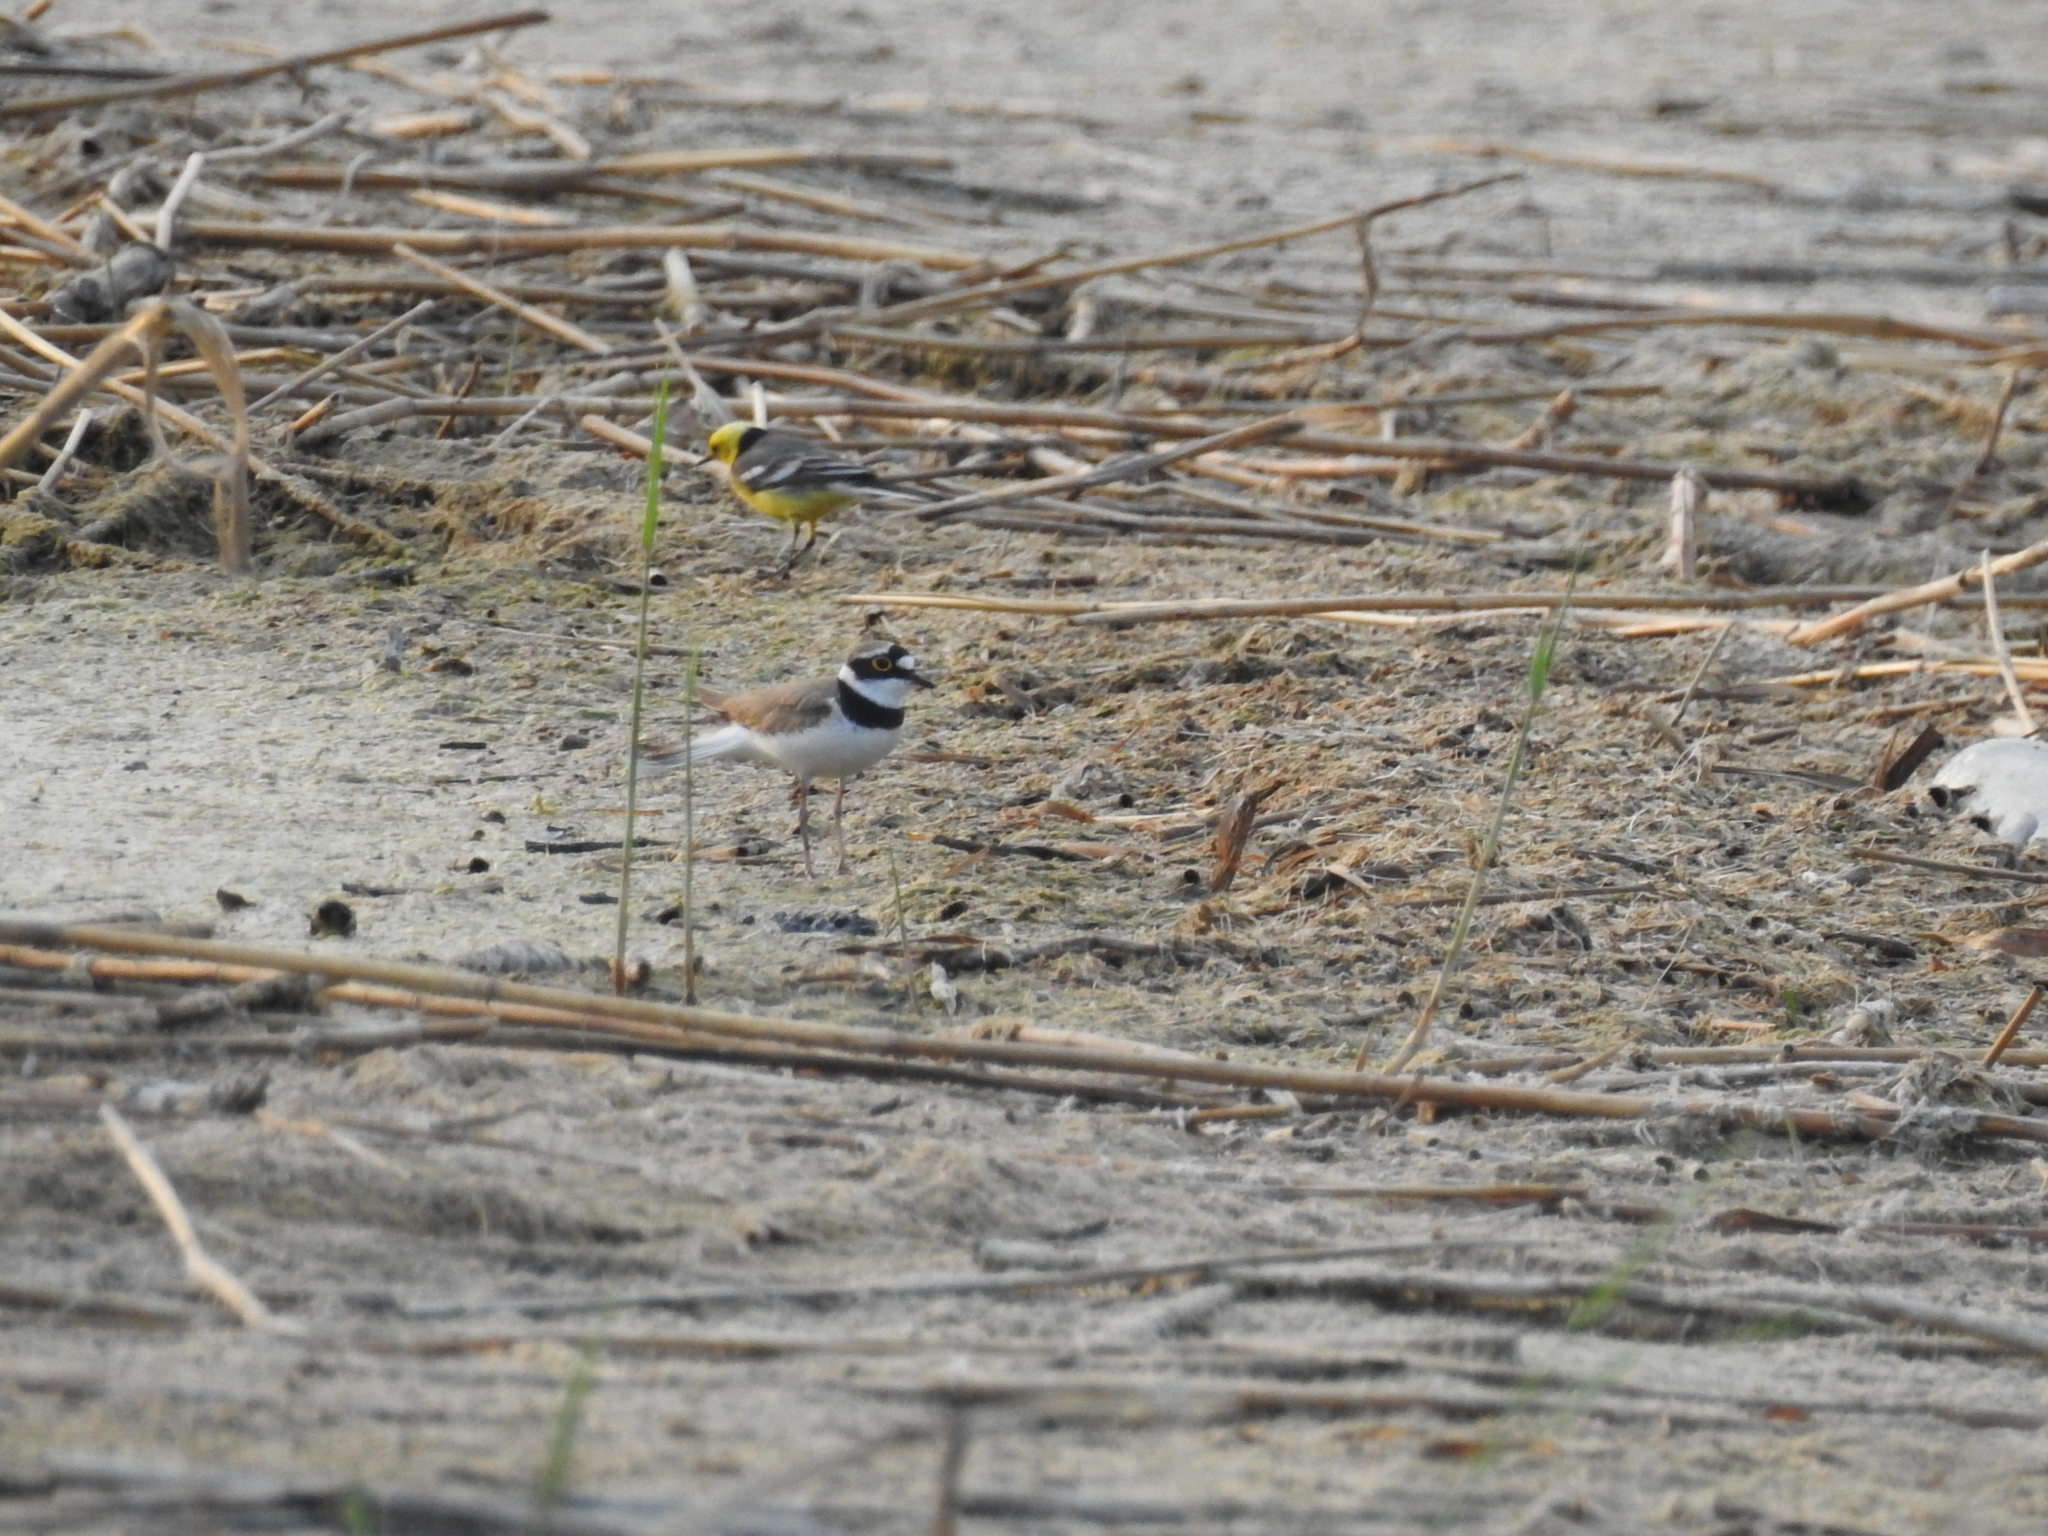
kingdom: Animalia
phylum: Chordata
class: Aves
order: Charadriiformes
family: Charadriidae
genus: Charadrius
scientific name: Charadrius dubius
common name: Little ringed plover
